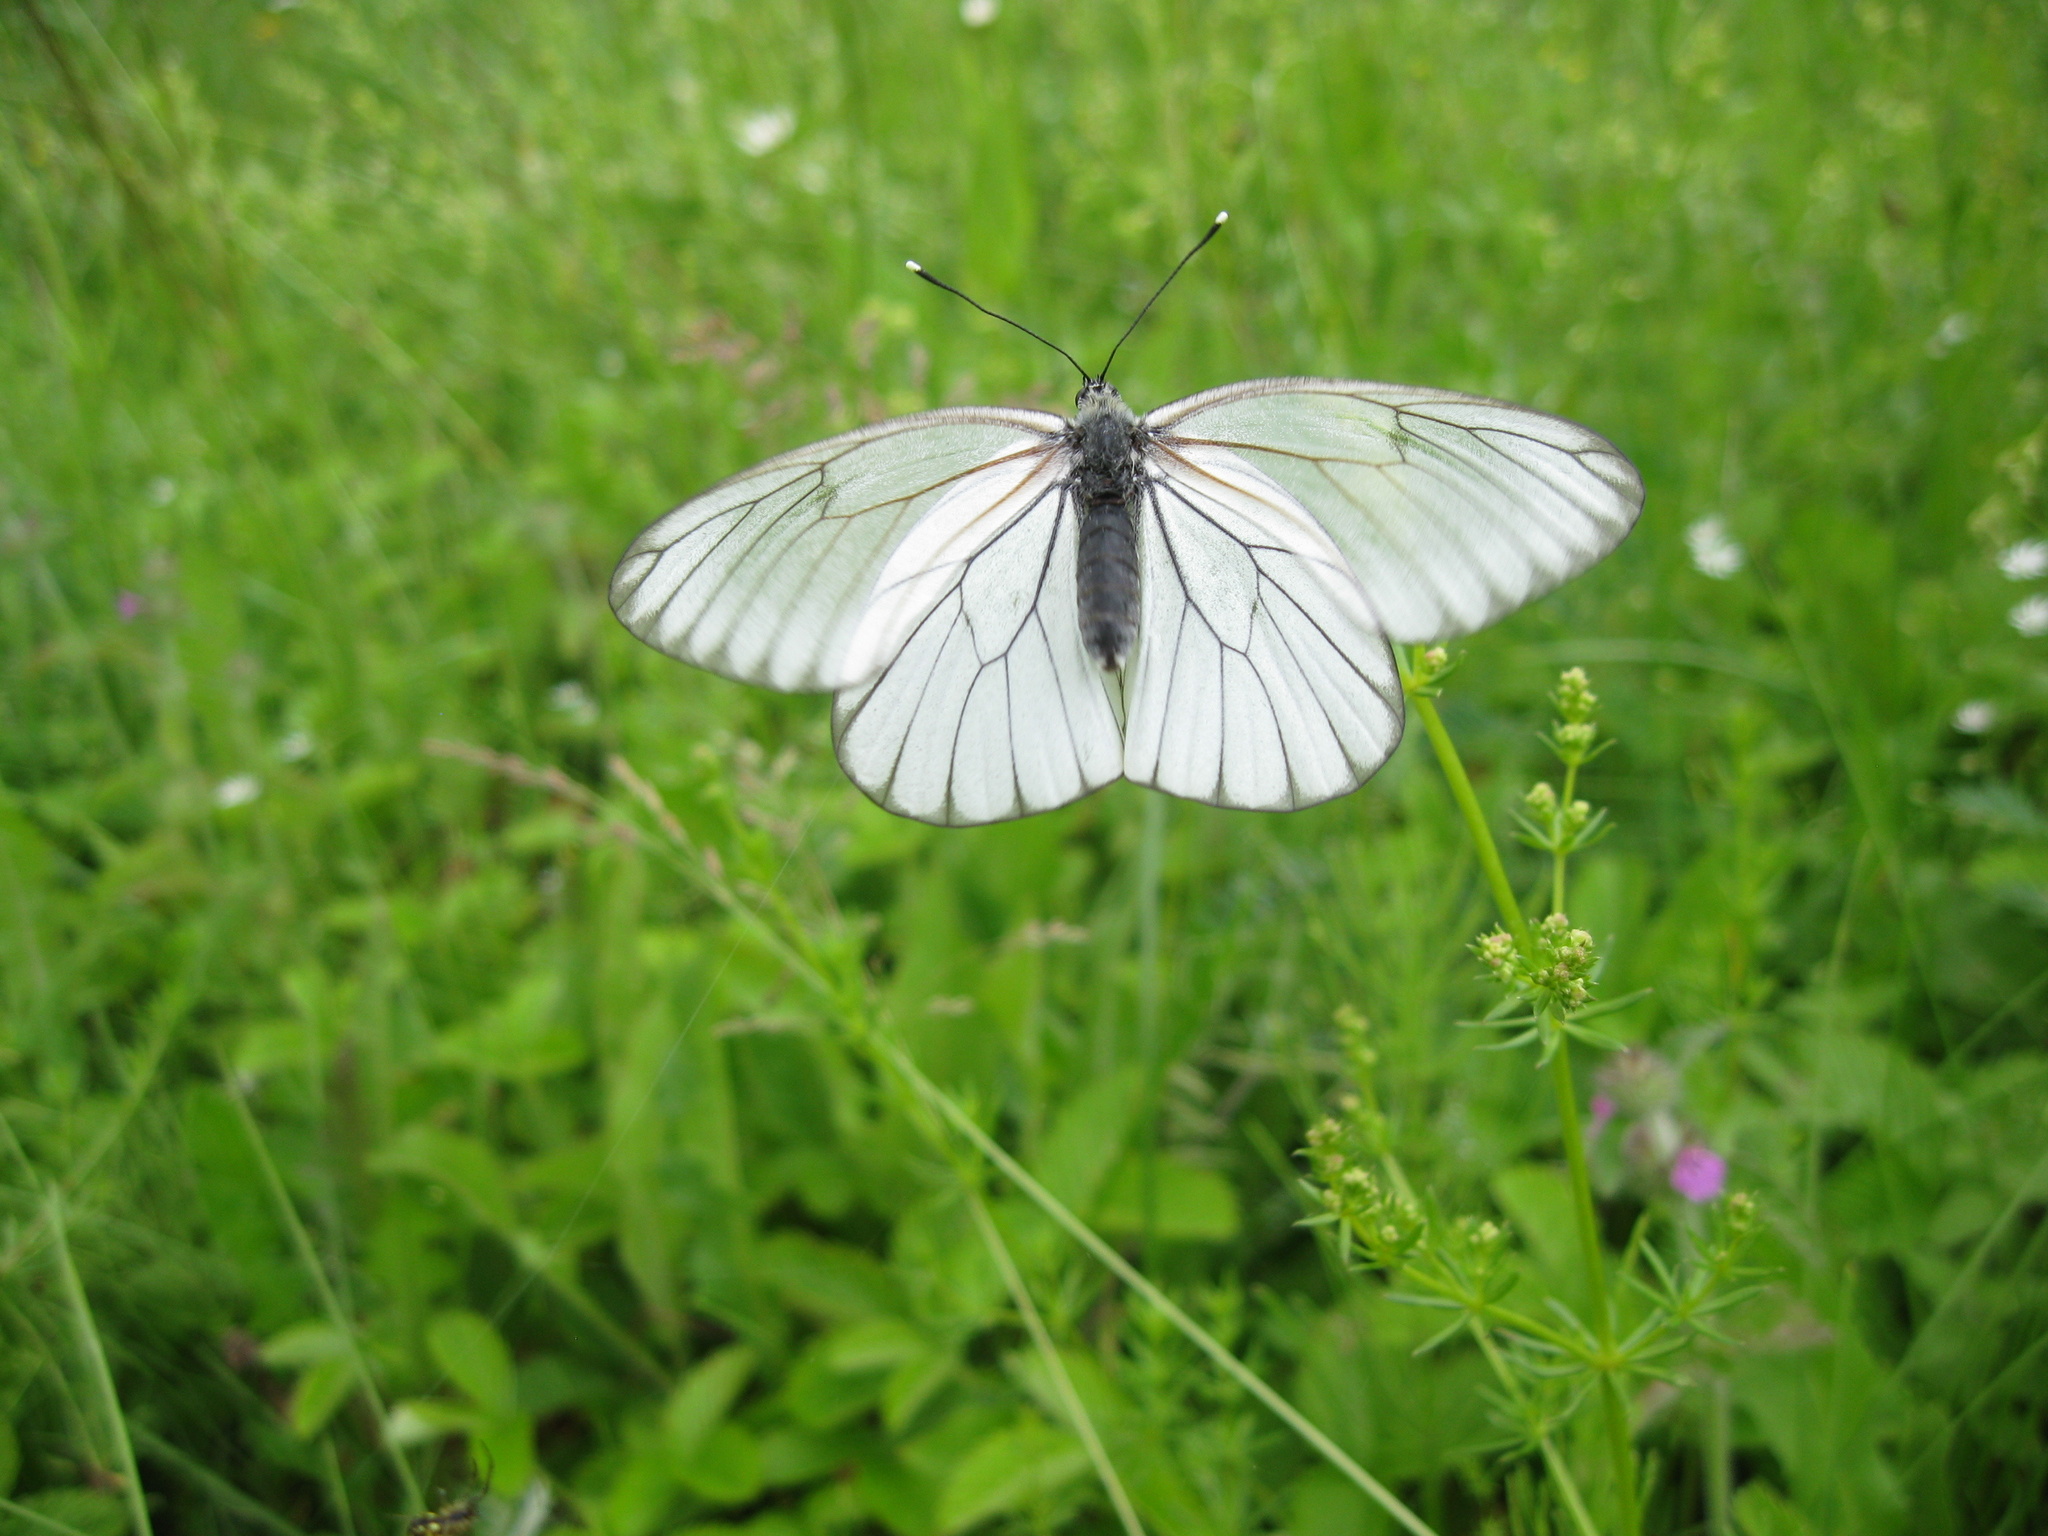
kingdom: Animalia
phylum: Arthropoda
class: Insecta
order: Lepidoptera
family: Pieridae
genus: Aporia
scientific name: Aporia crataegi
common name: Black-veined white
